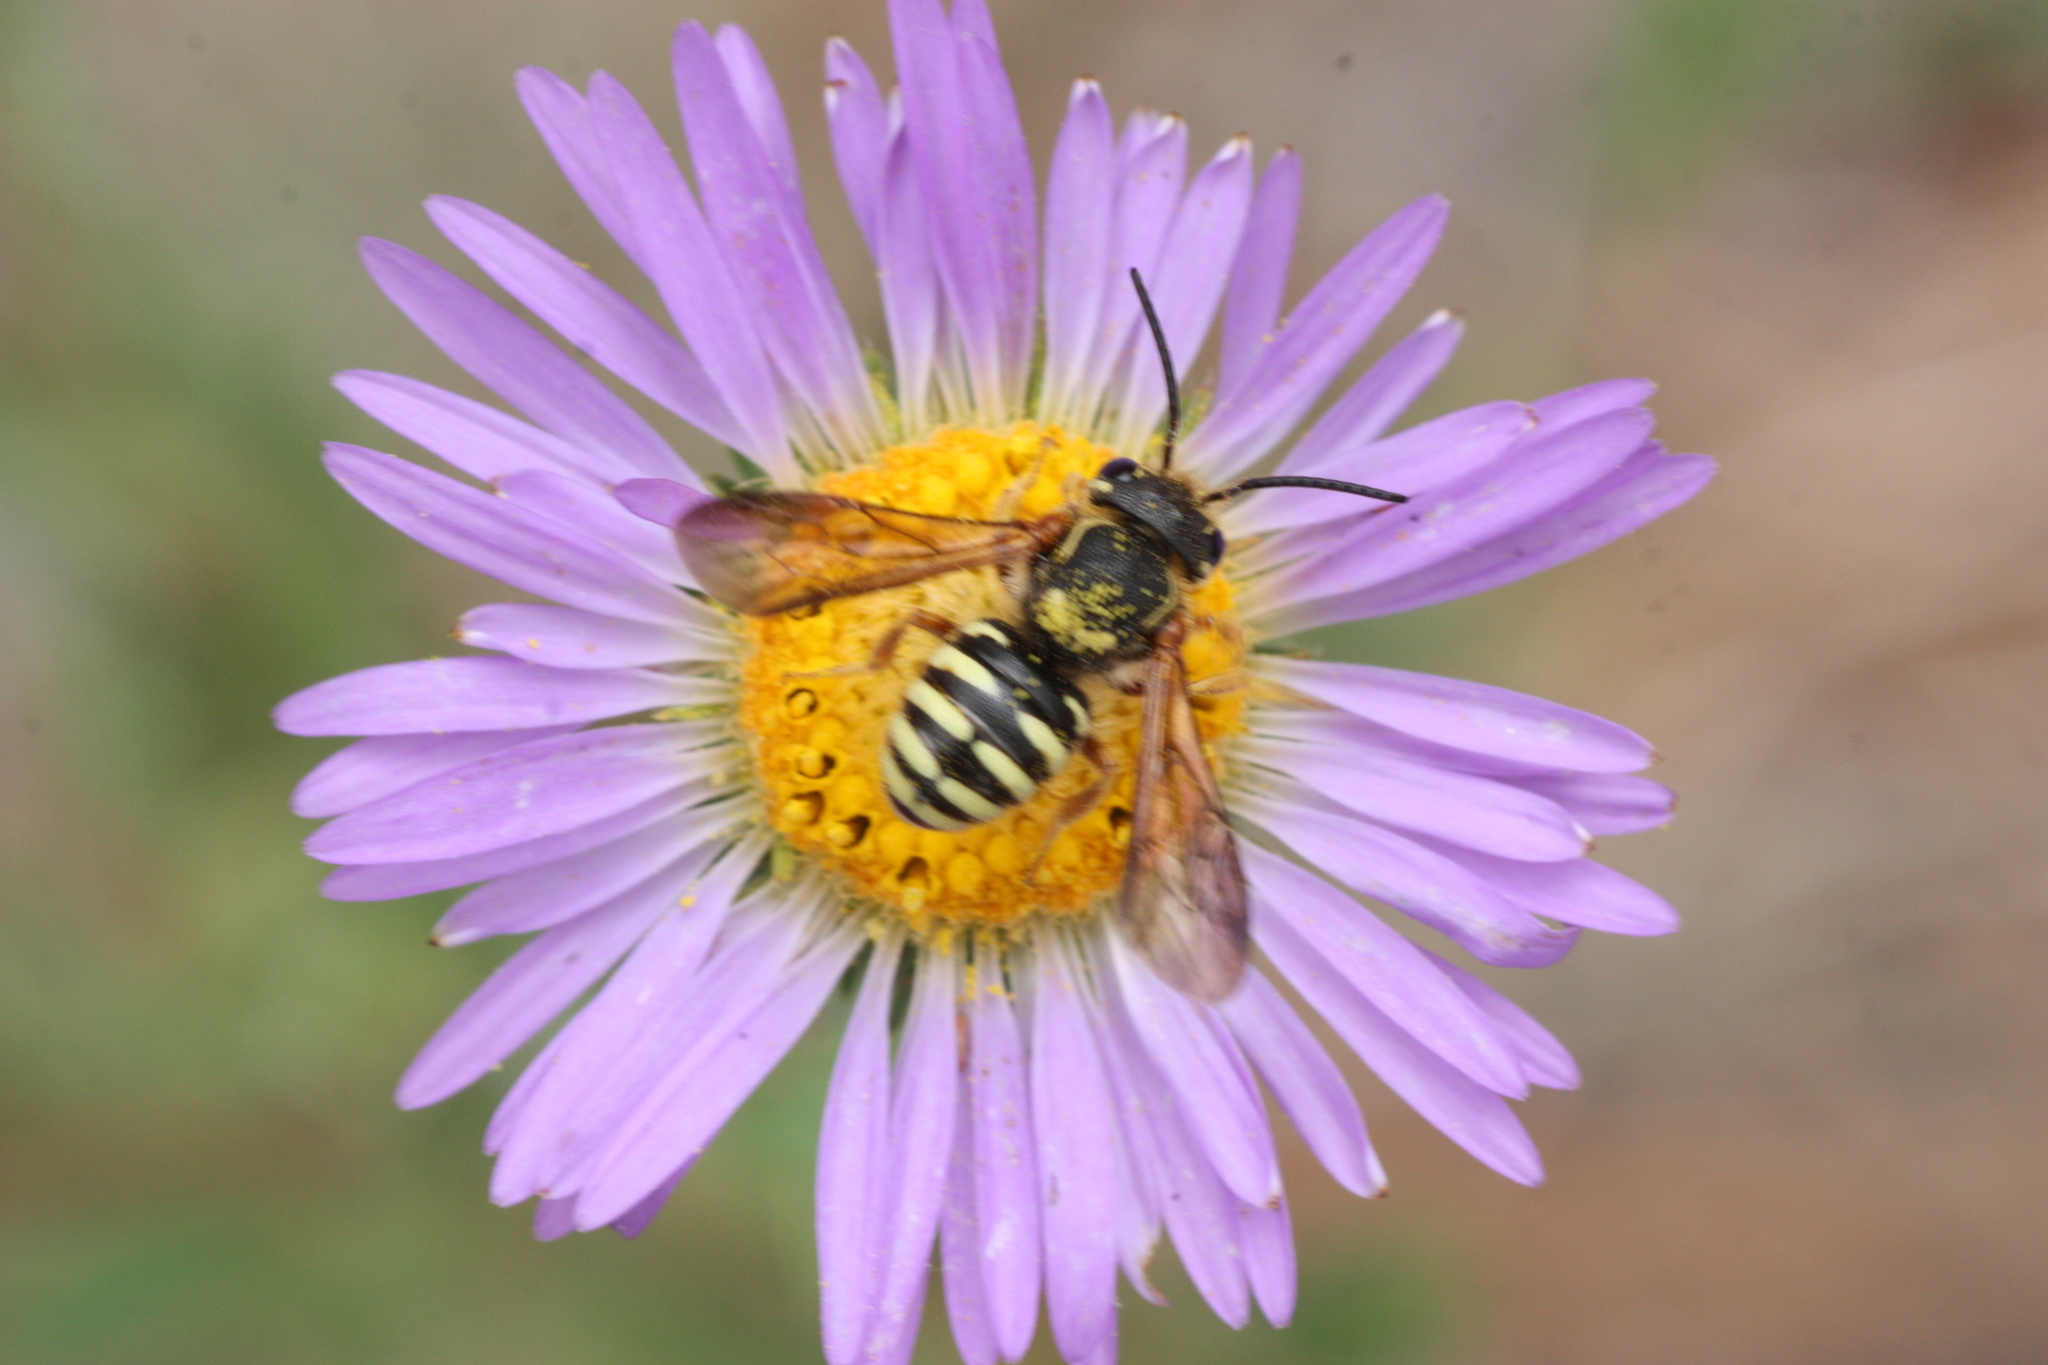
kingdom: Animalia
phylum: Arthropoda
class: Insecta
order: Hymenoptera
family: Megachilidae
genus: Paranthidium
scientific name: Paranthidium jugatorium
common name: Sunflower burrowing-resin bee
